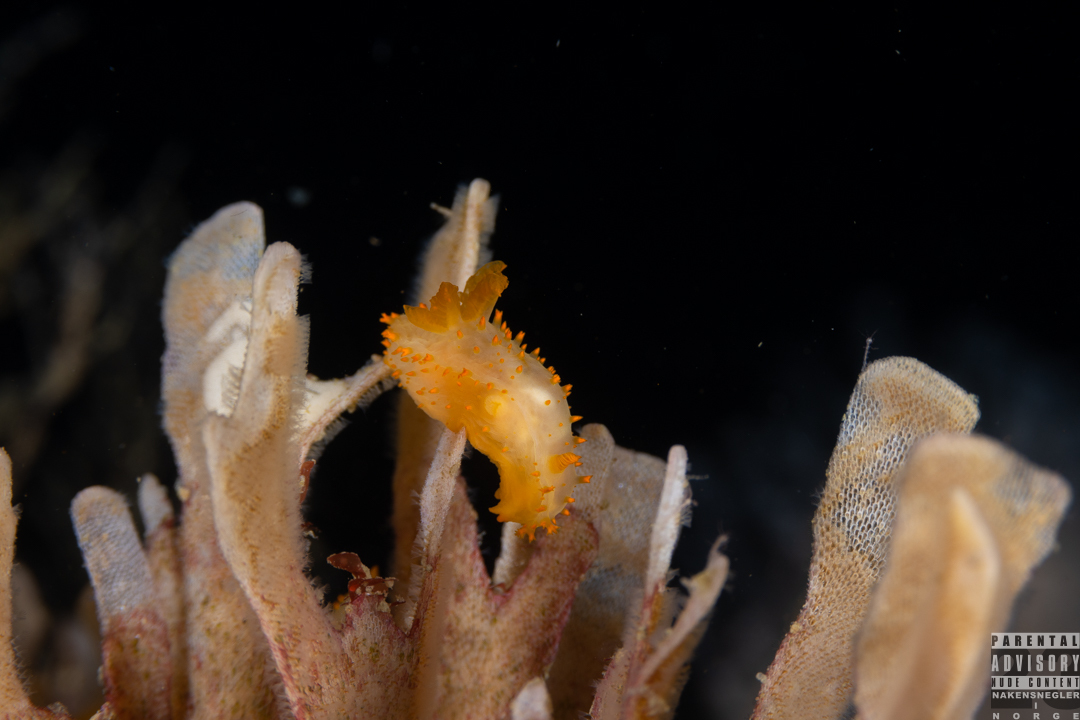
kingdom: Animalia
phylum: Mollusca
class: Gastropoda
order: Nudibranchia
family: Polyceridae
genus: Crimora
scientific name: Crimora papillata
